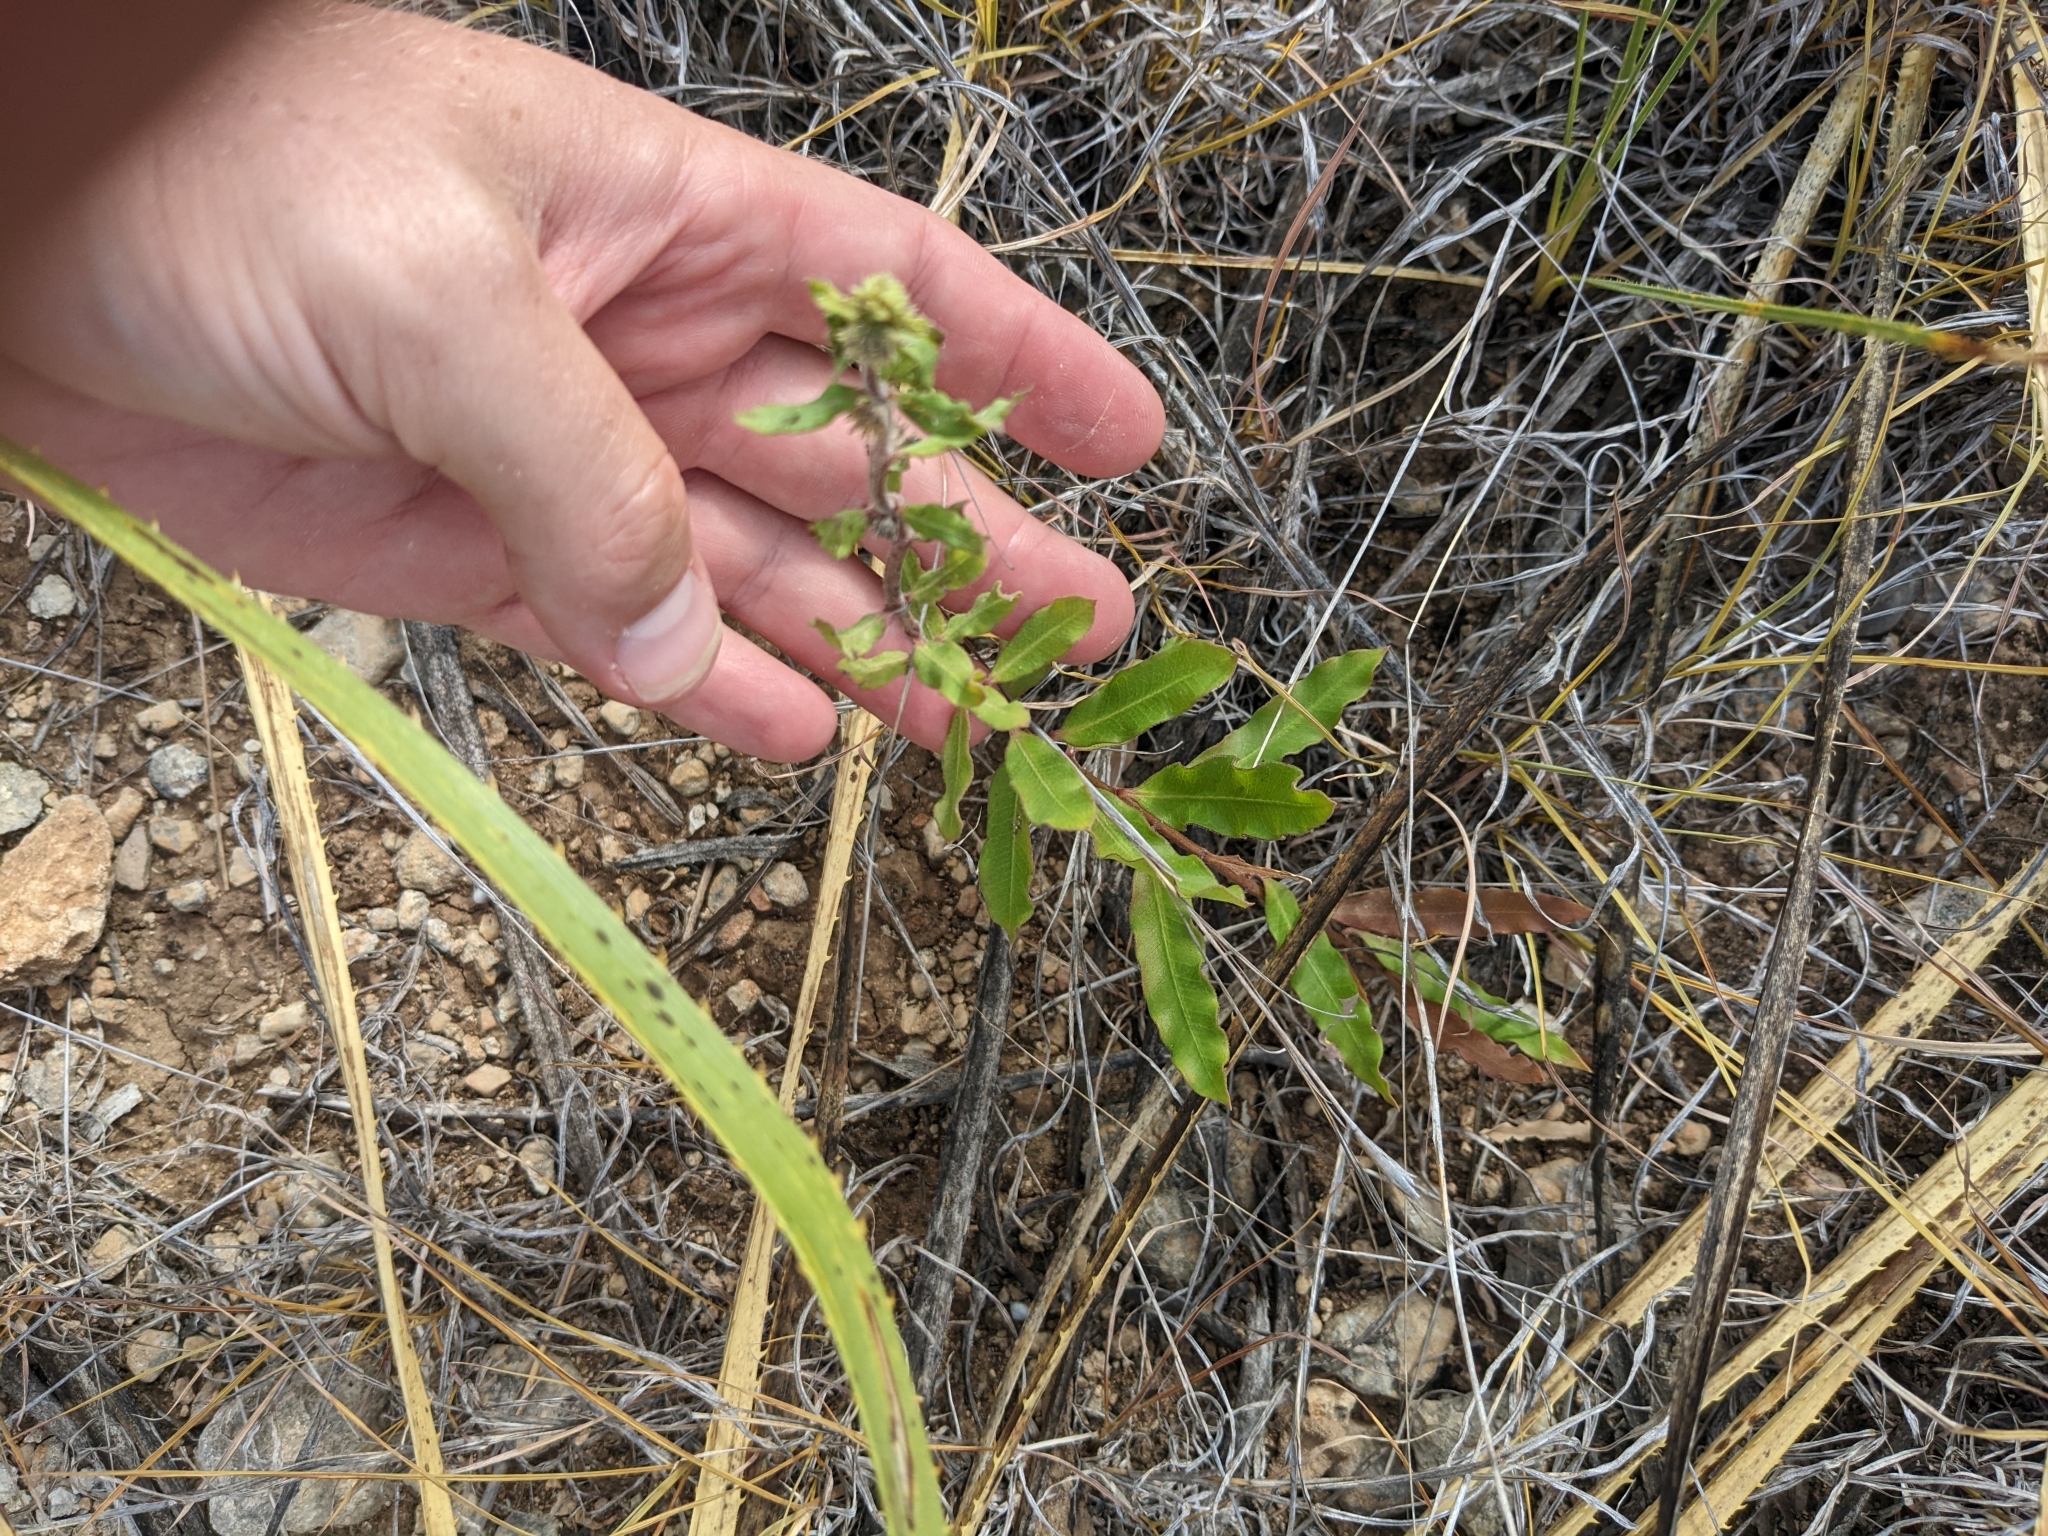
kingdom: Plantae
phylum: Tracheophyta
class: Magnoliopsida
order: Gentianales
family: Apocynaceae
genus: Asclepias
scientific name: Asclepias viridiflora
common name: Green comet milkweed
